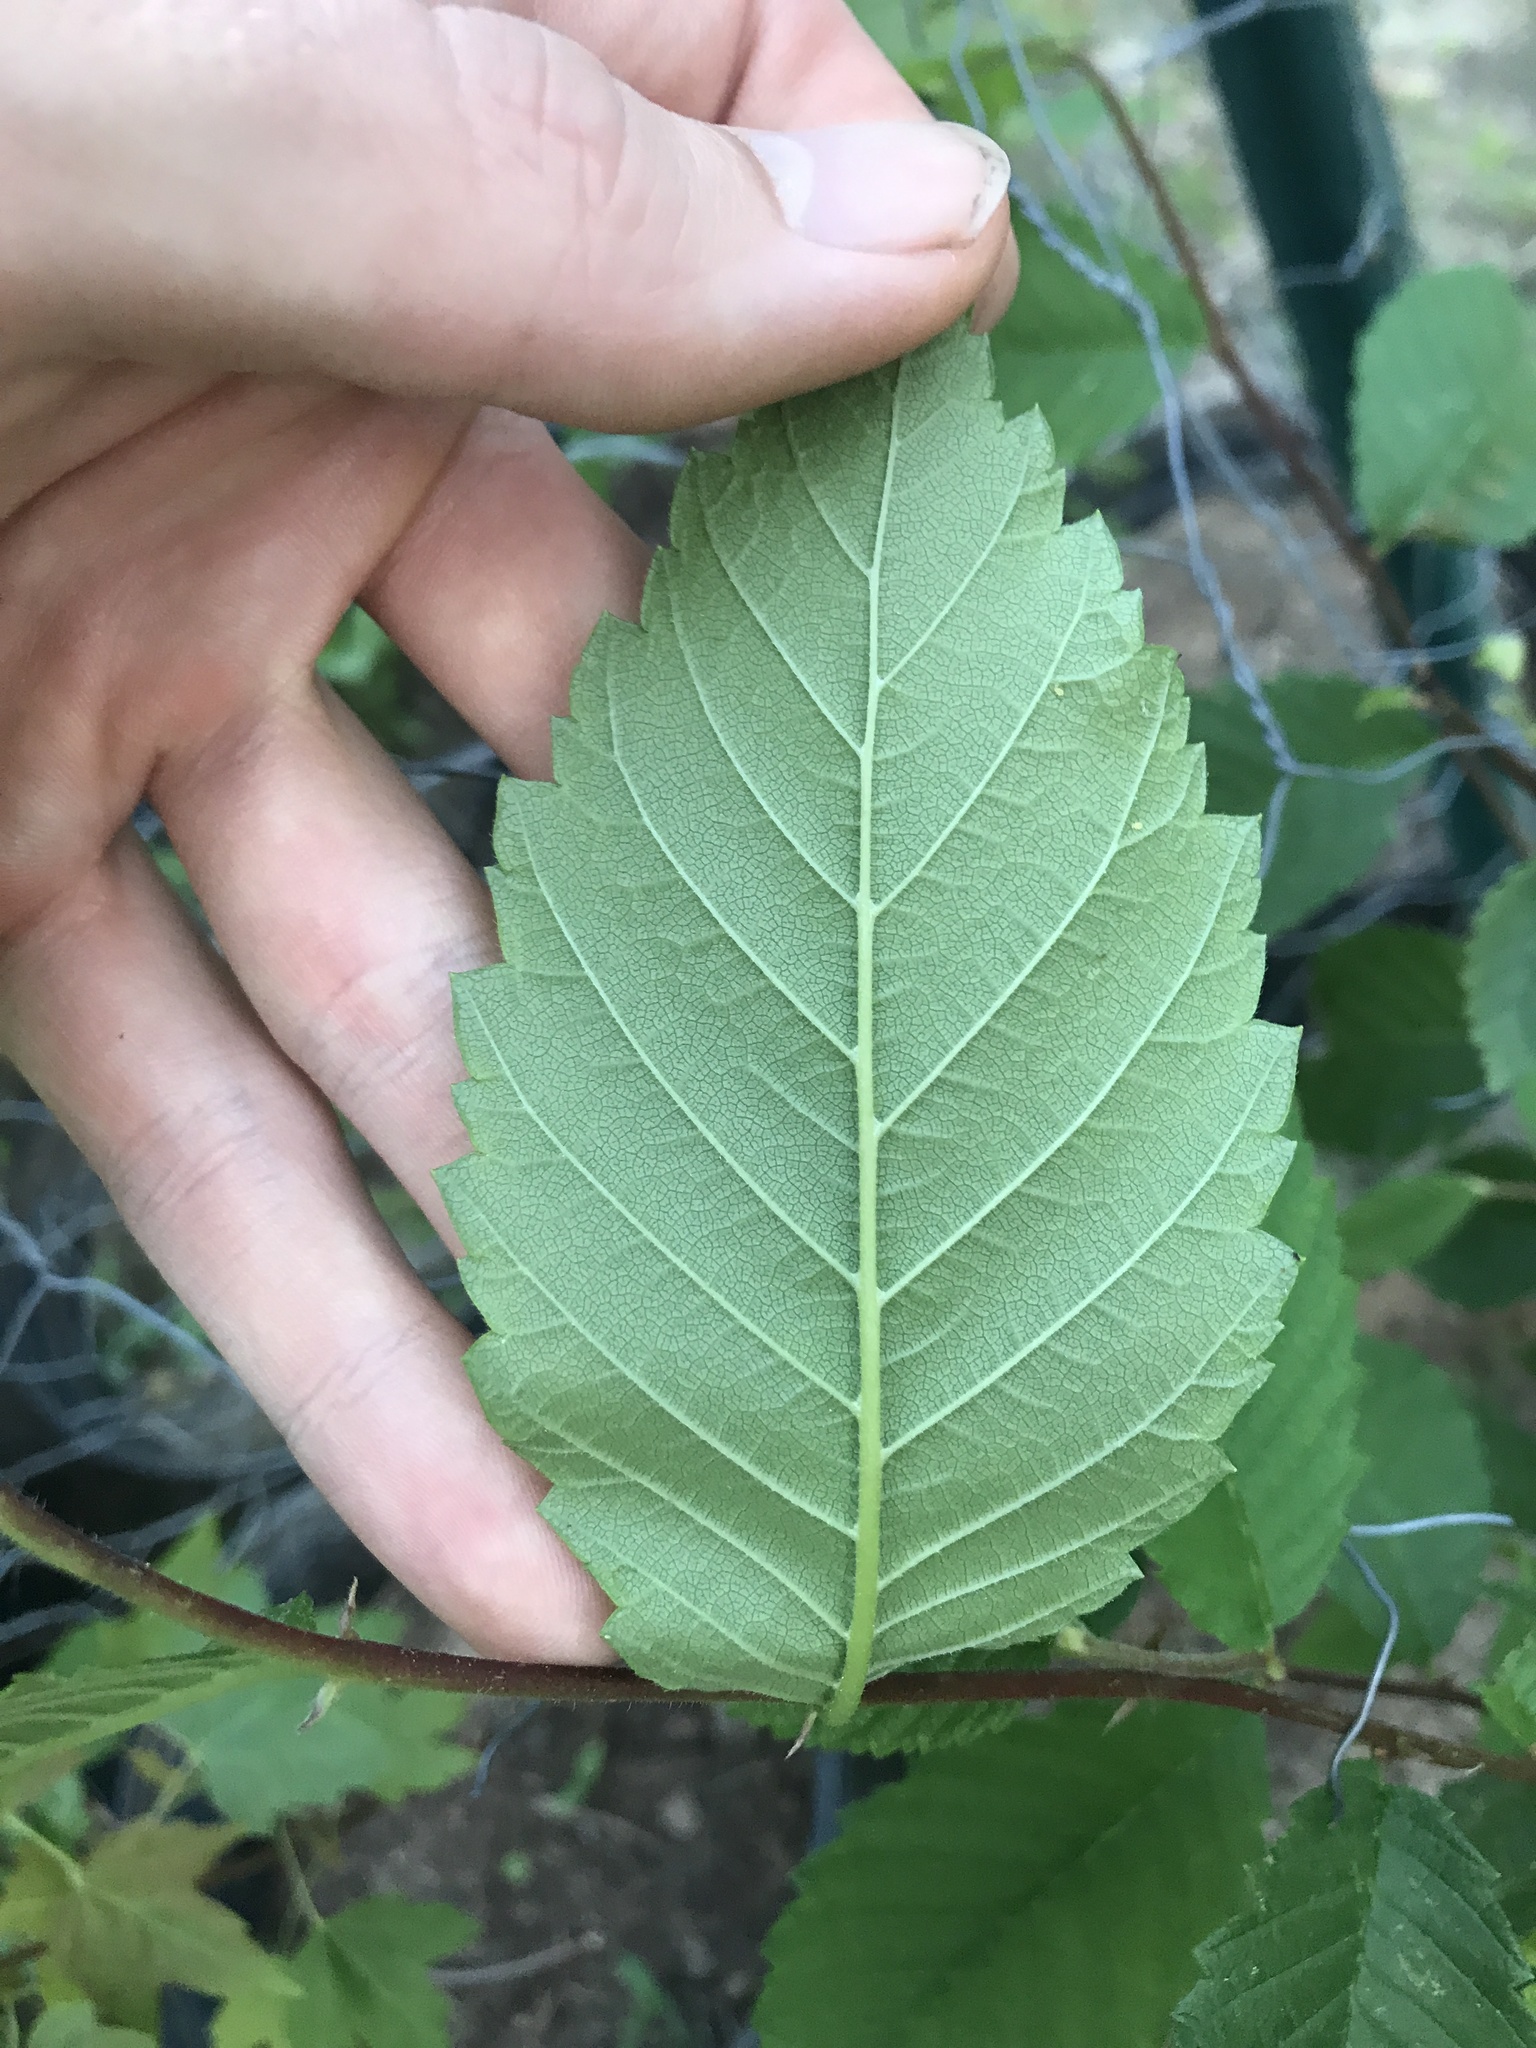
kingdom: Plantae
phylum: Tracheophyta
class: Magnoliopsida
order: Rosales
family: Ulmaceae
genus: Ulmus
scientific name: Ulmus americana
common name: American elm
